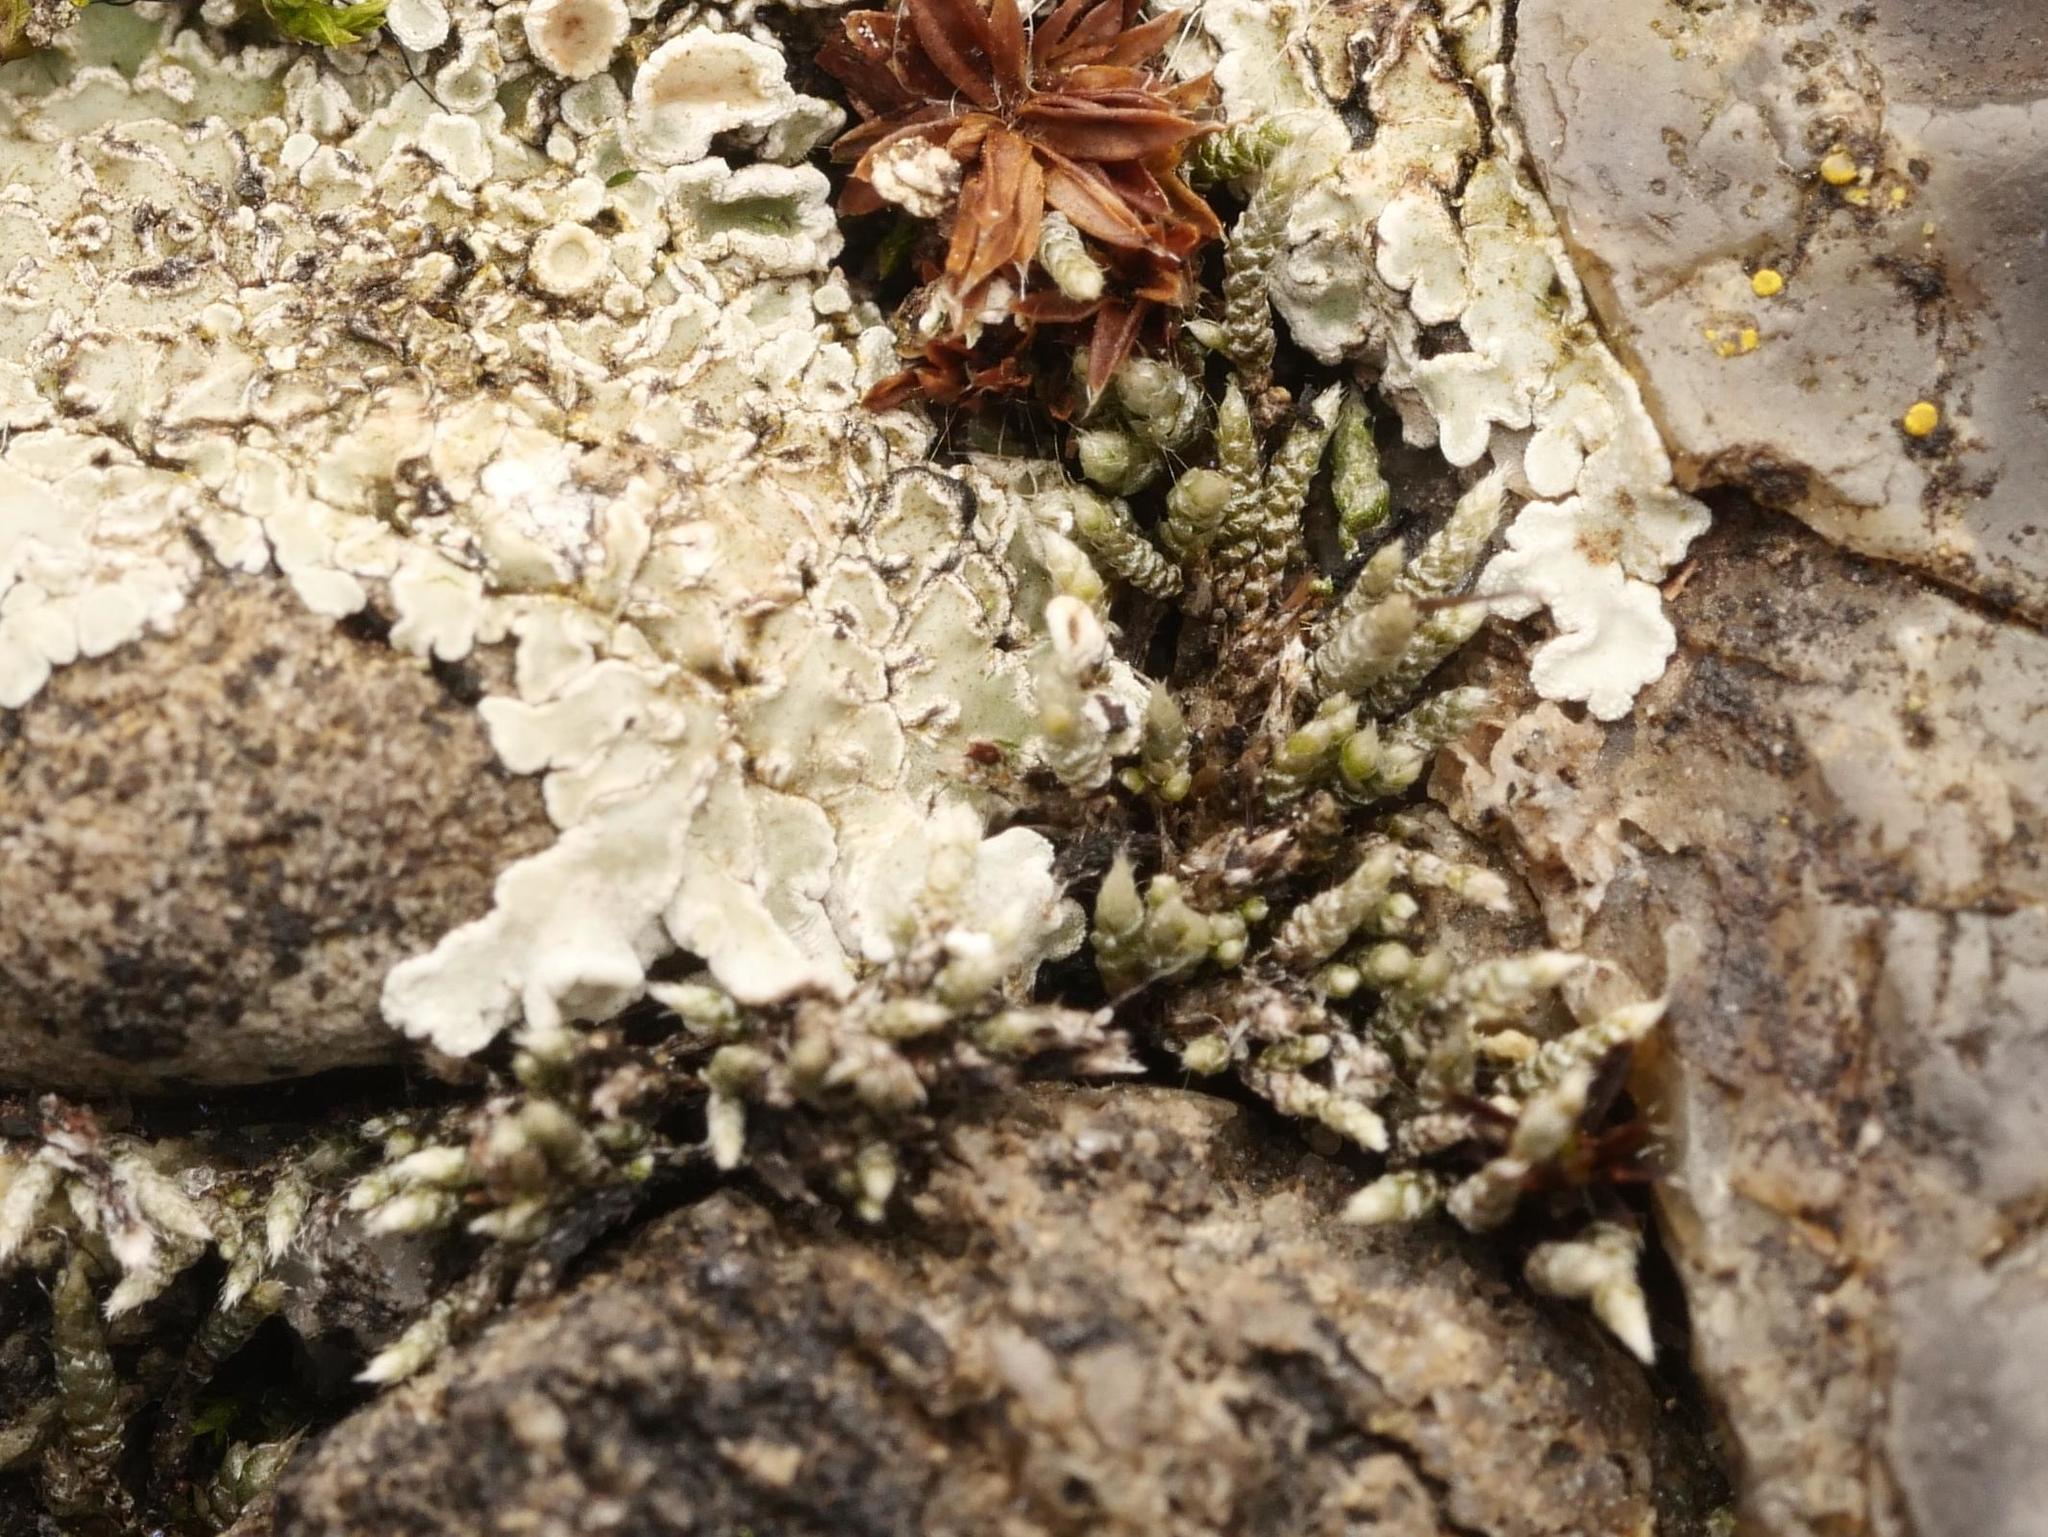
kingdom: Plantae
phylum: Bryophyta
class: Bryopsida
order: Bryales
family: Bryaceae
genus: Bryum
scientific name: Bryum argenteum
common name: Silver-moss
